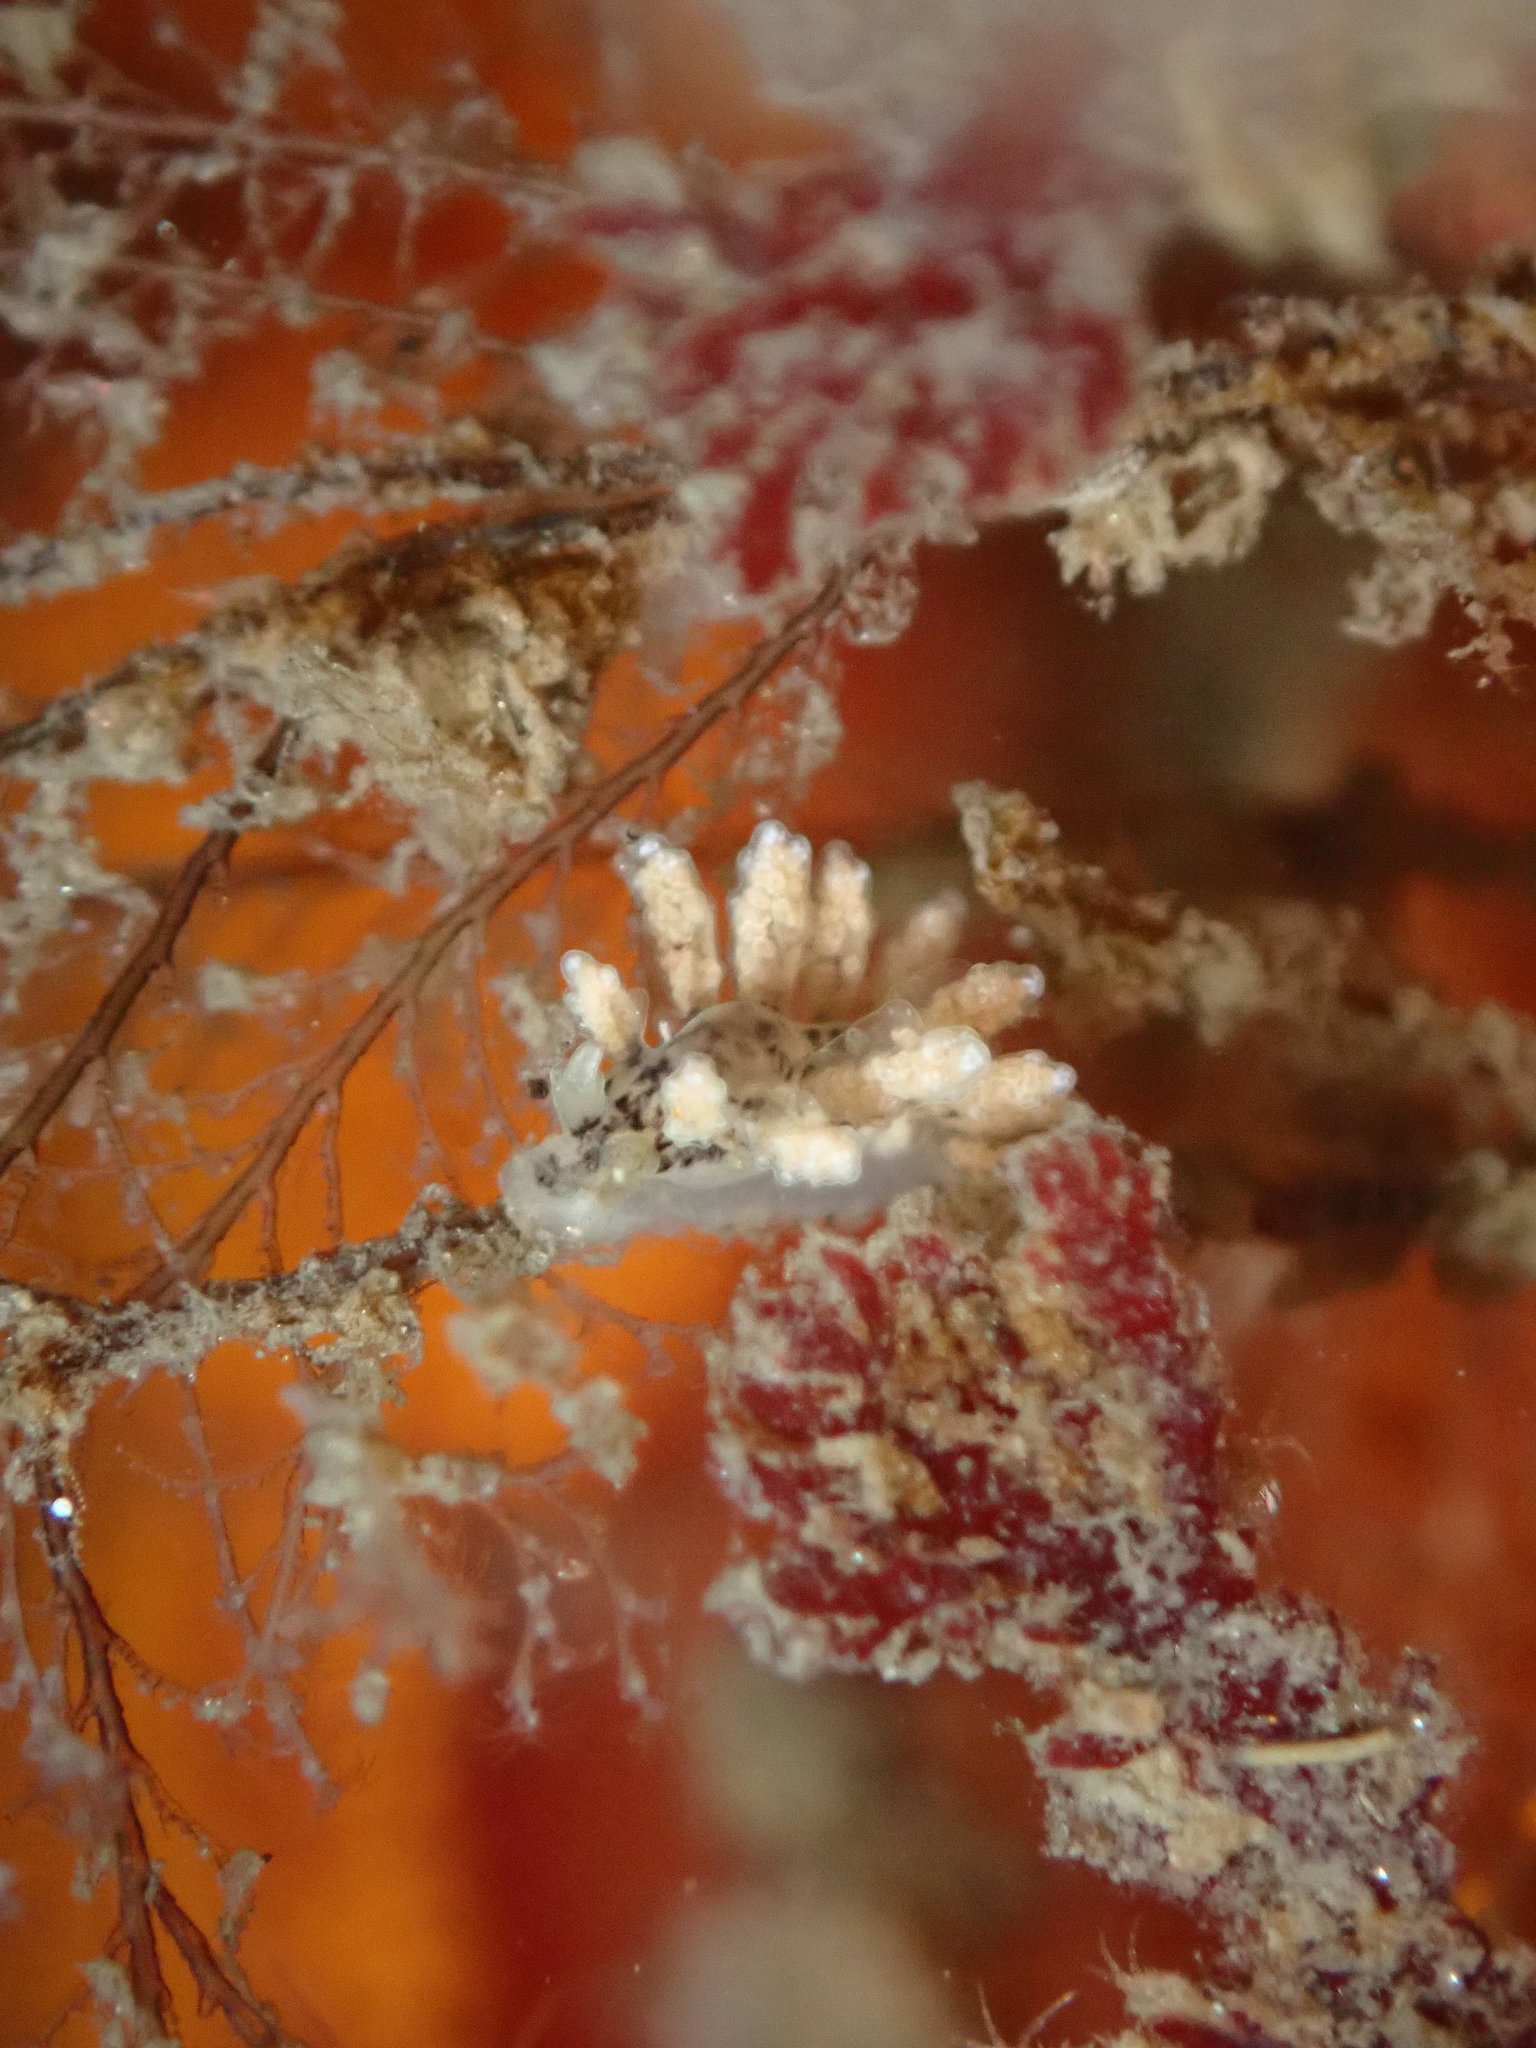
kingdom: Animalia
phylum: Mollusca
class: Gastropoda
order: Nudibranchia
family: Dotidae
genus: Doto
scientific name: Doto kya
